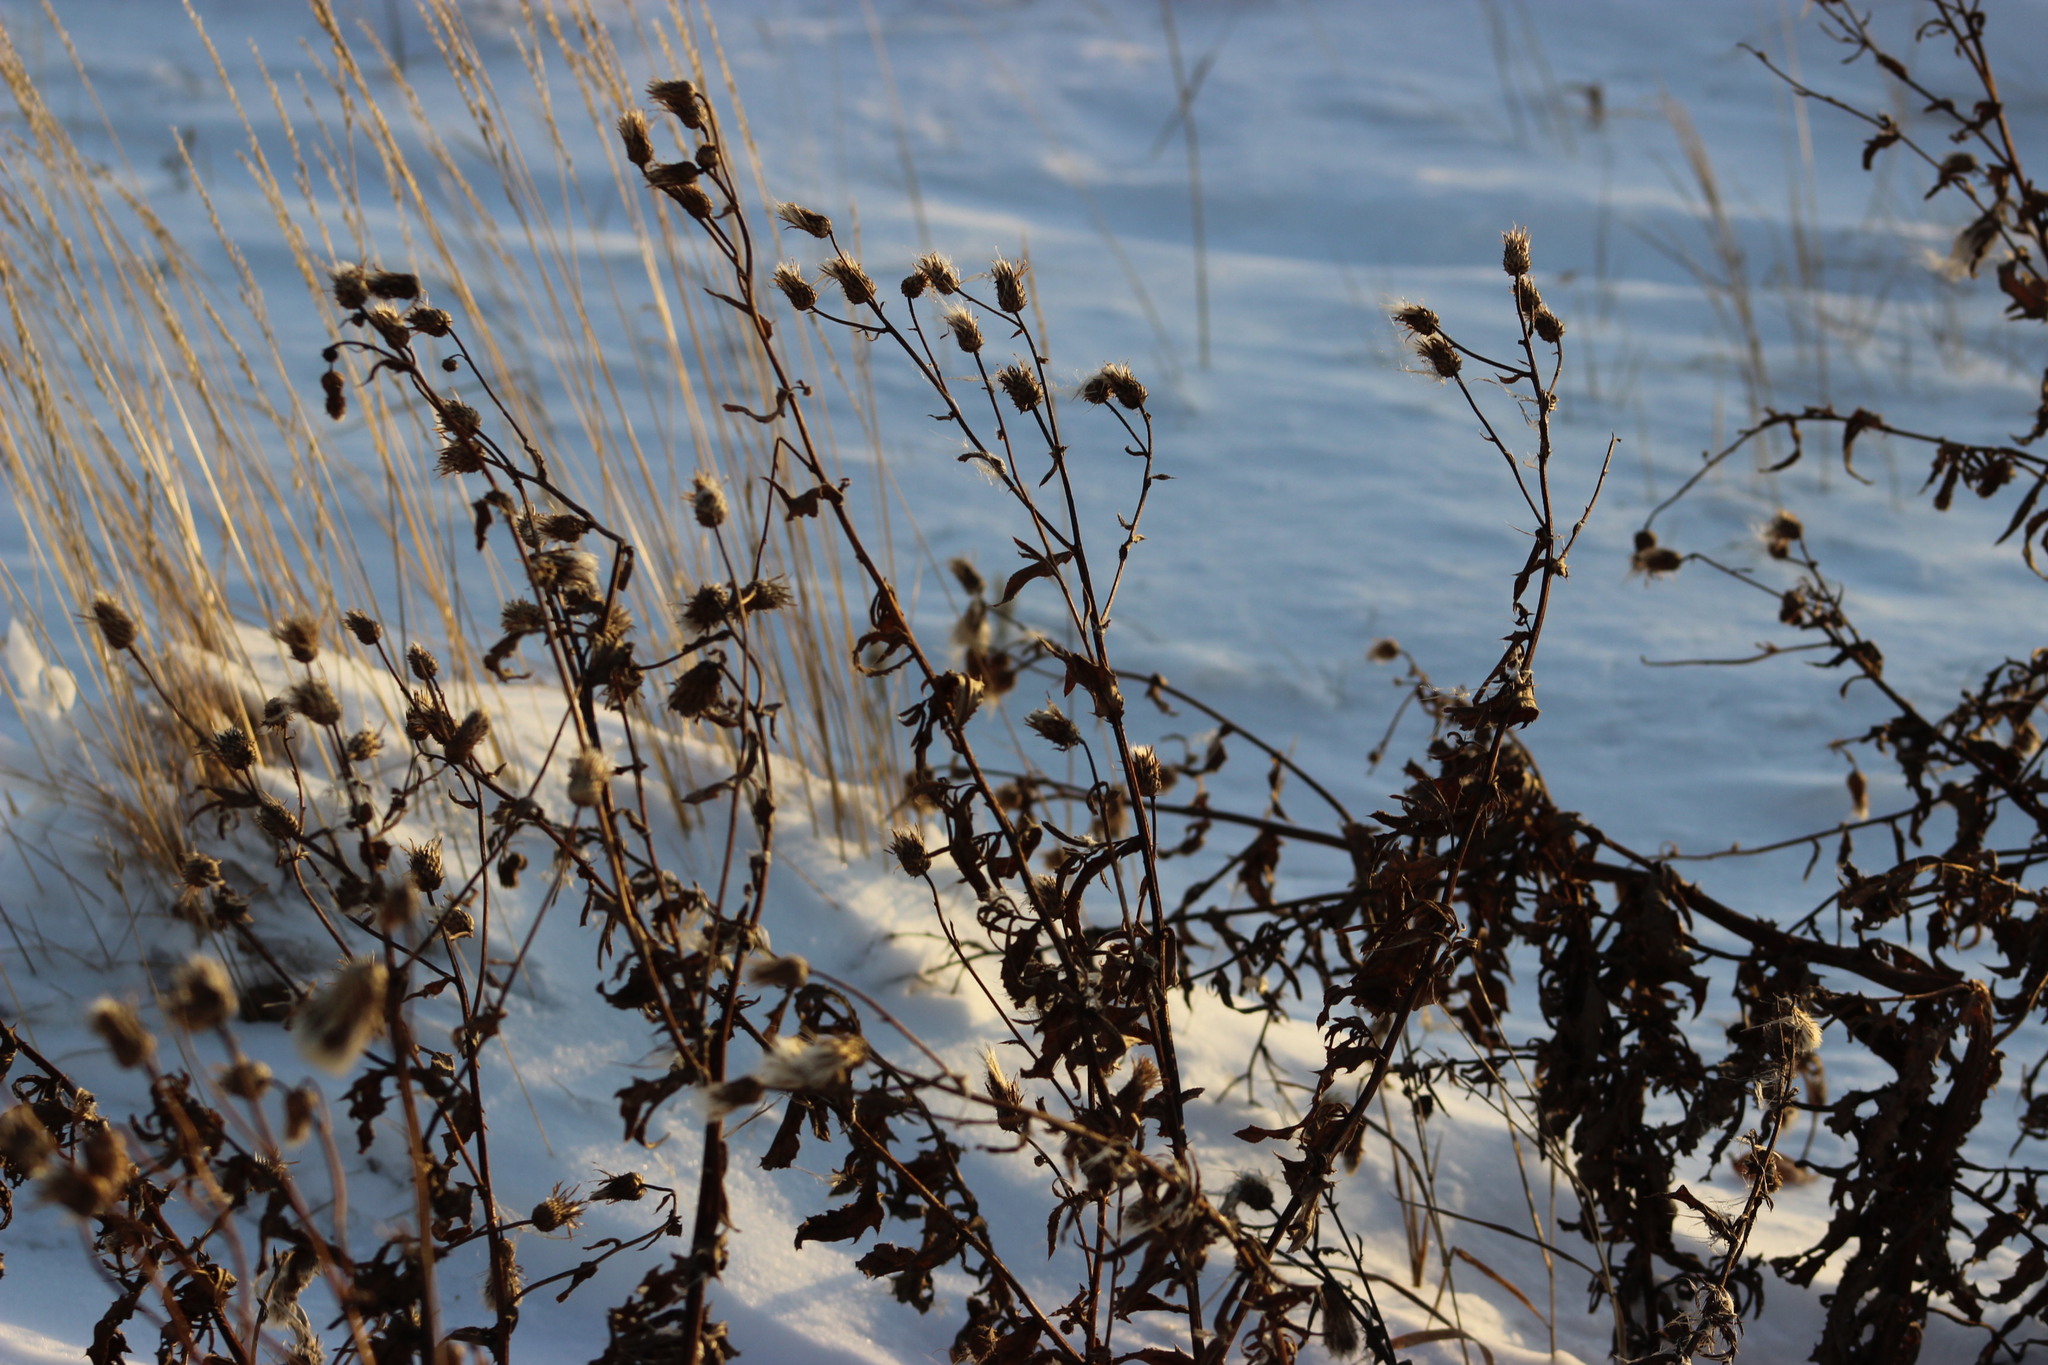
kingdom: Plantae
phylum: Tracheophyta
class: Magnoliopsida
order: Asterales
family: Asteraceae
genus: Cirsium
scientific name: Cirsium arvense
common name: Creeping thistle
